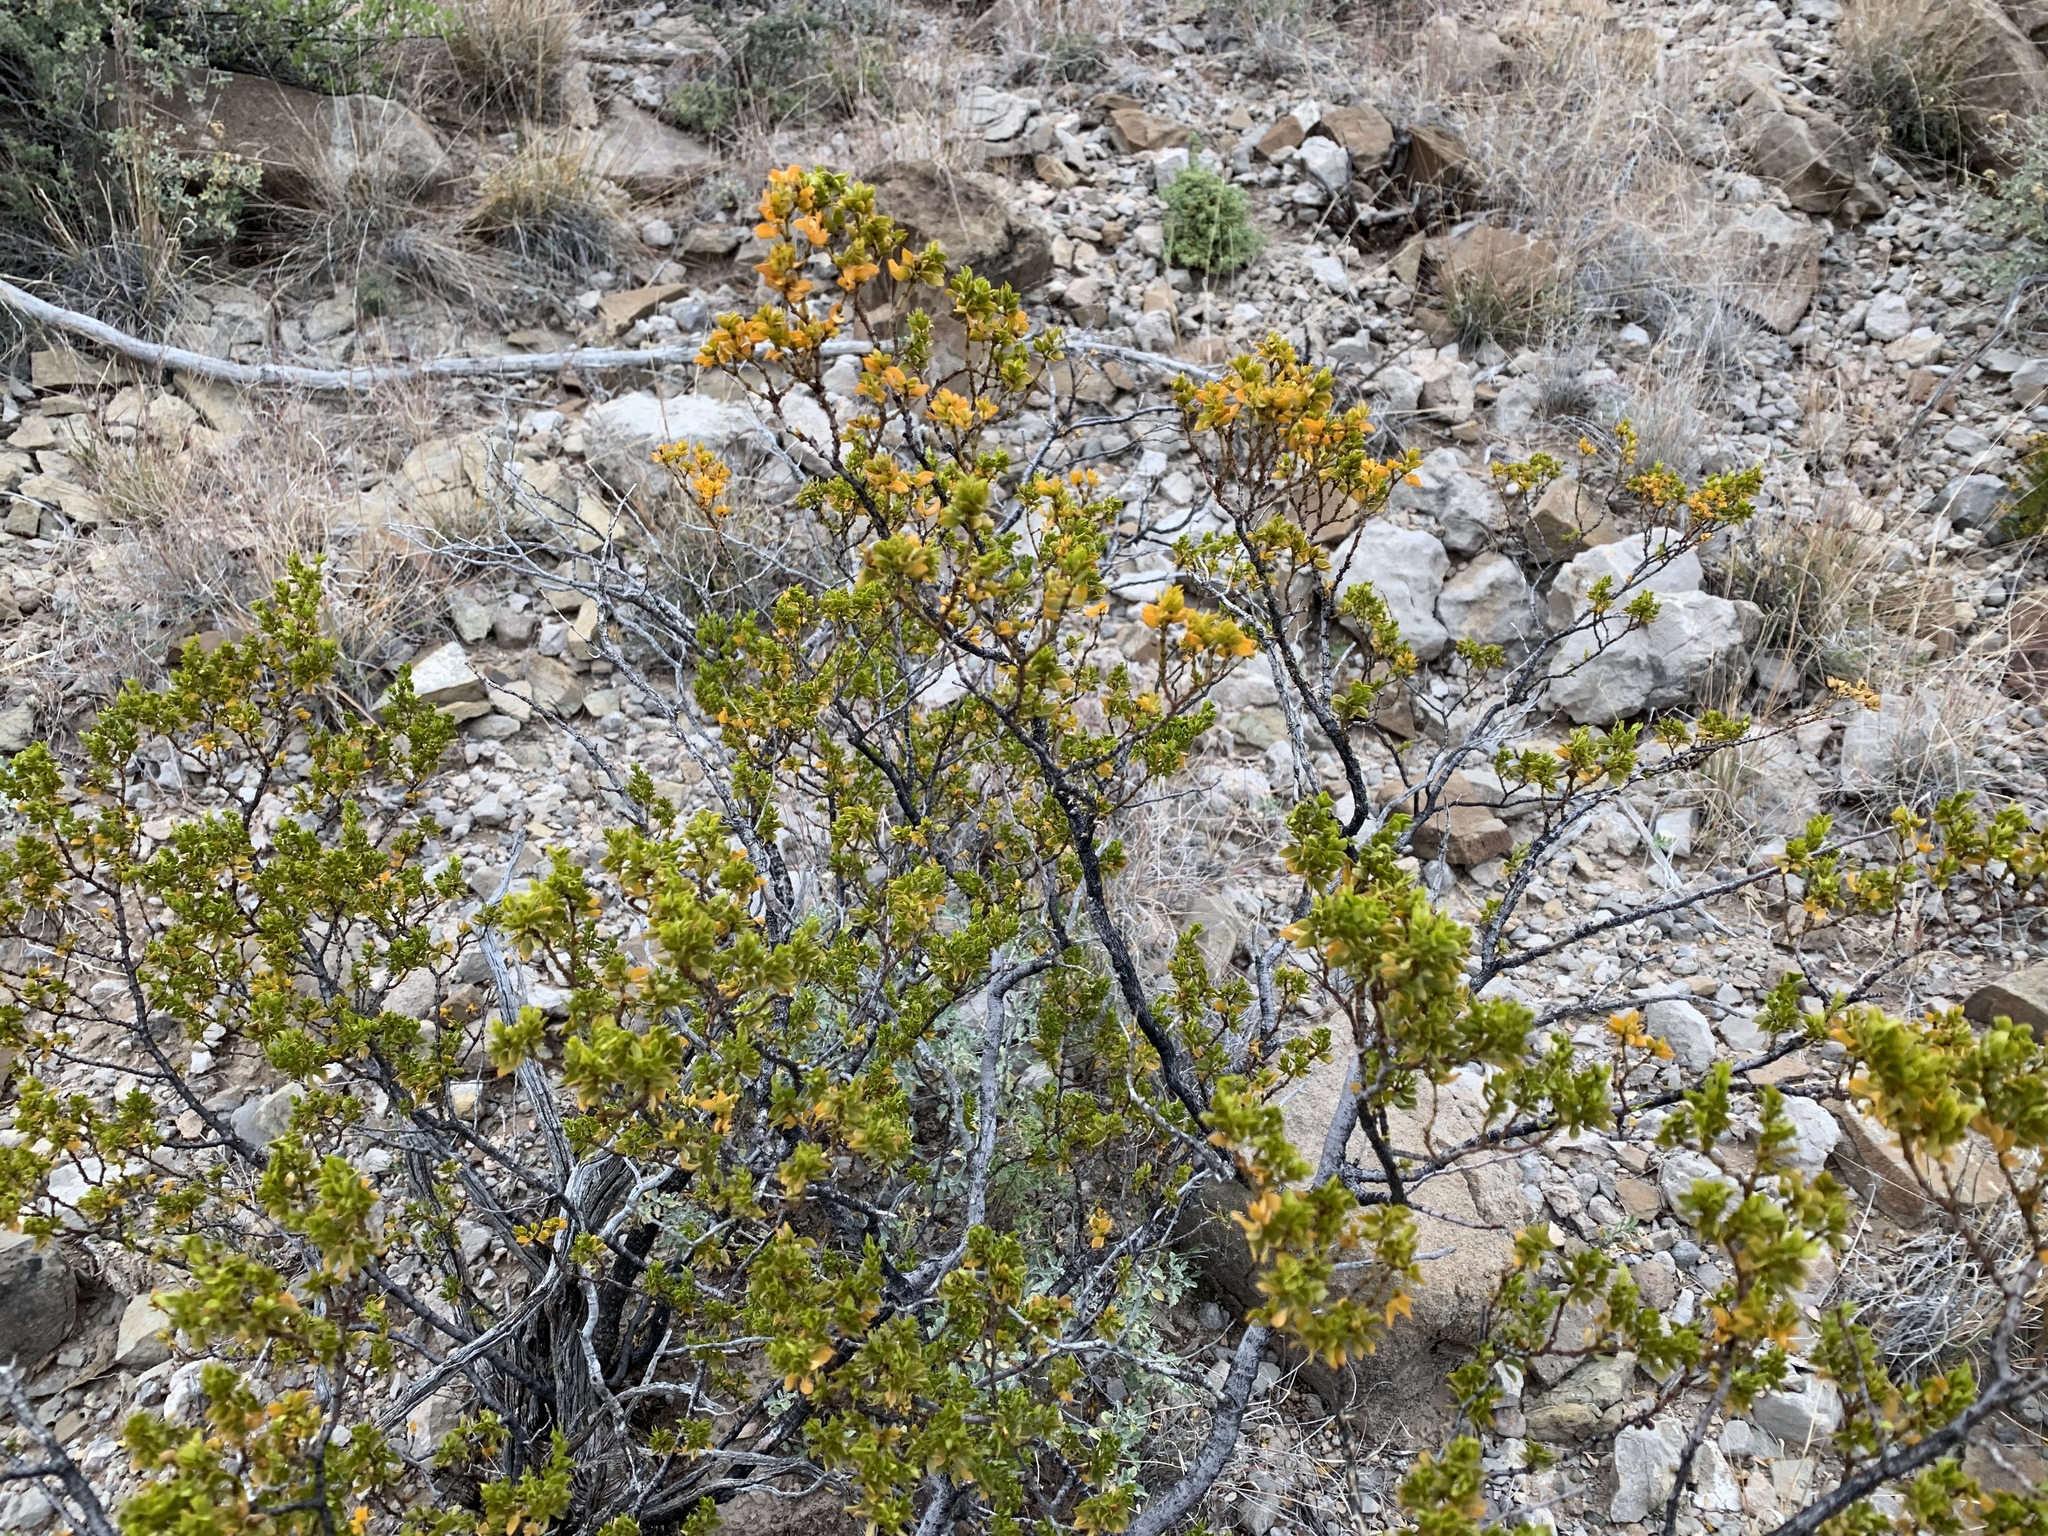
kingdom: Plantae
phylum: Tracheophyta
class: Magnoliopsida
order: Zygophyllales
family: Zygophyllaceae
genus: Larrea
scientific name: Larrea tridentata
